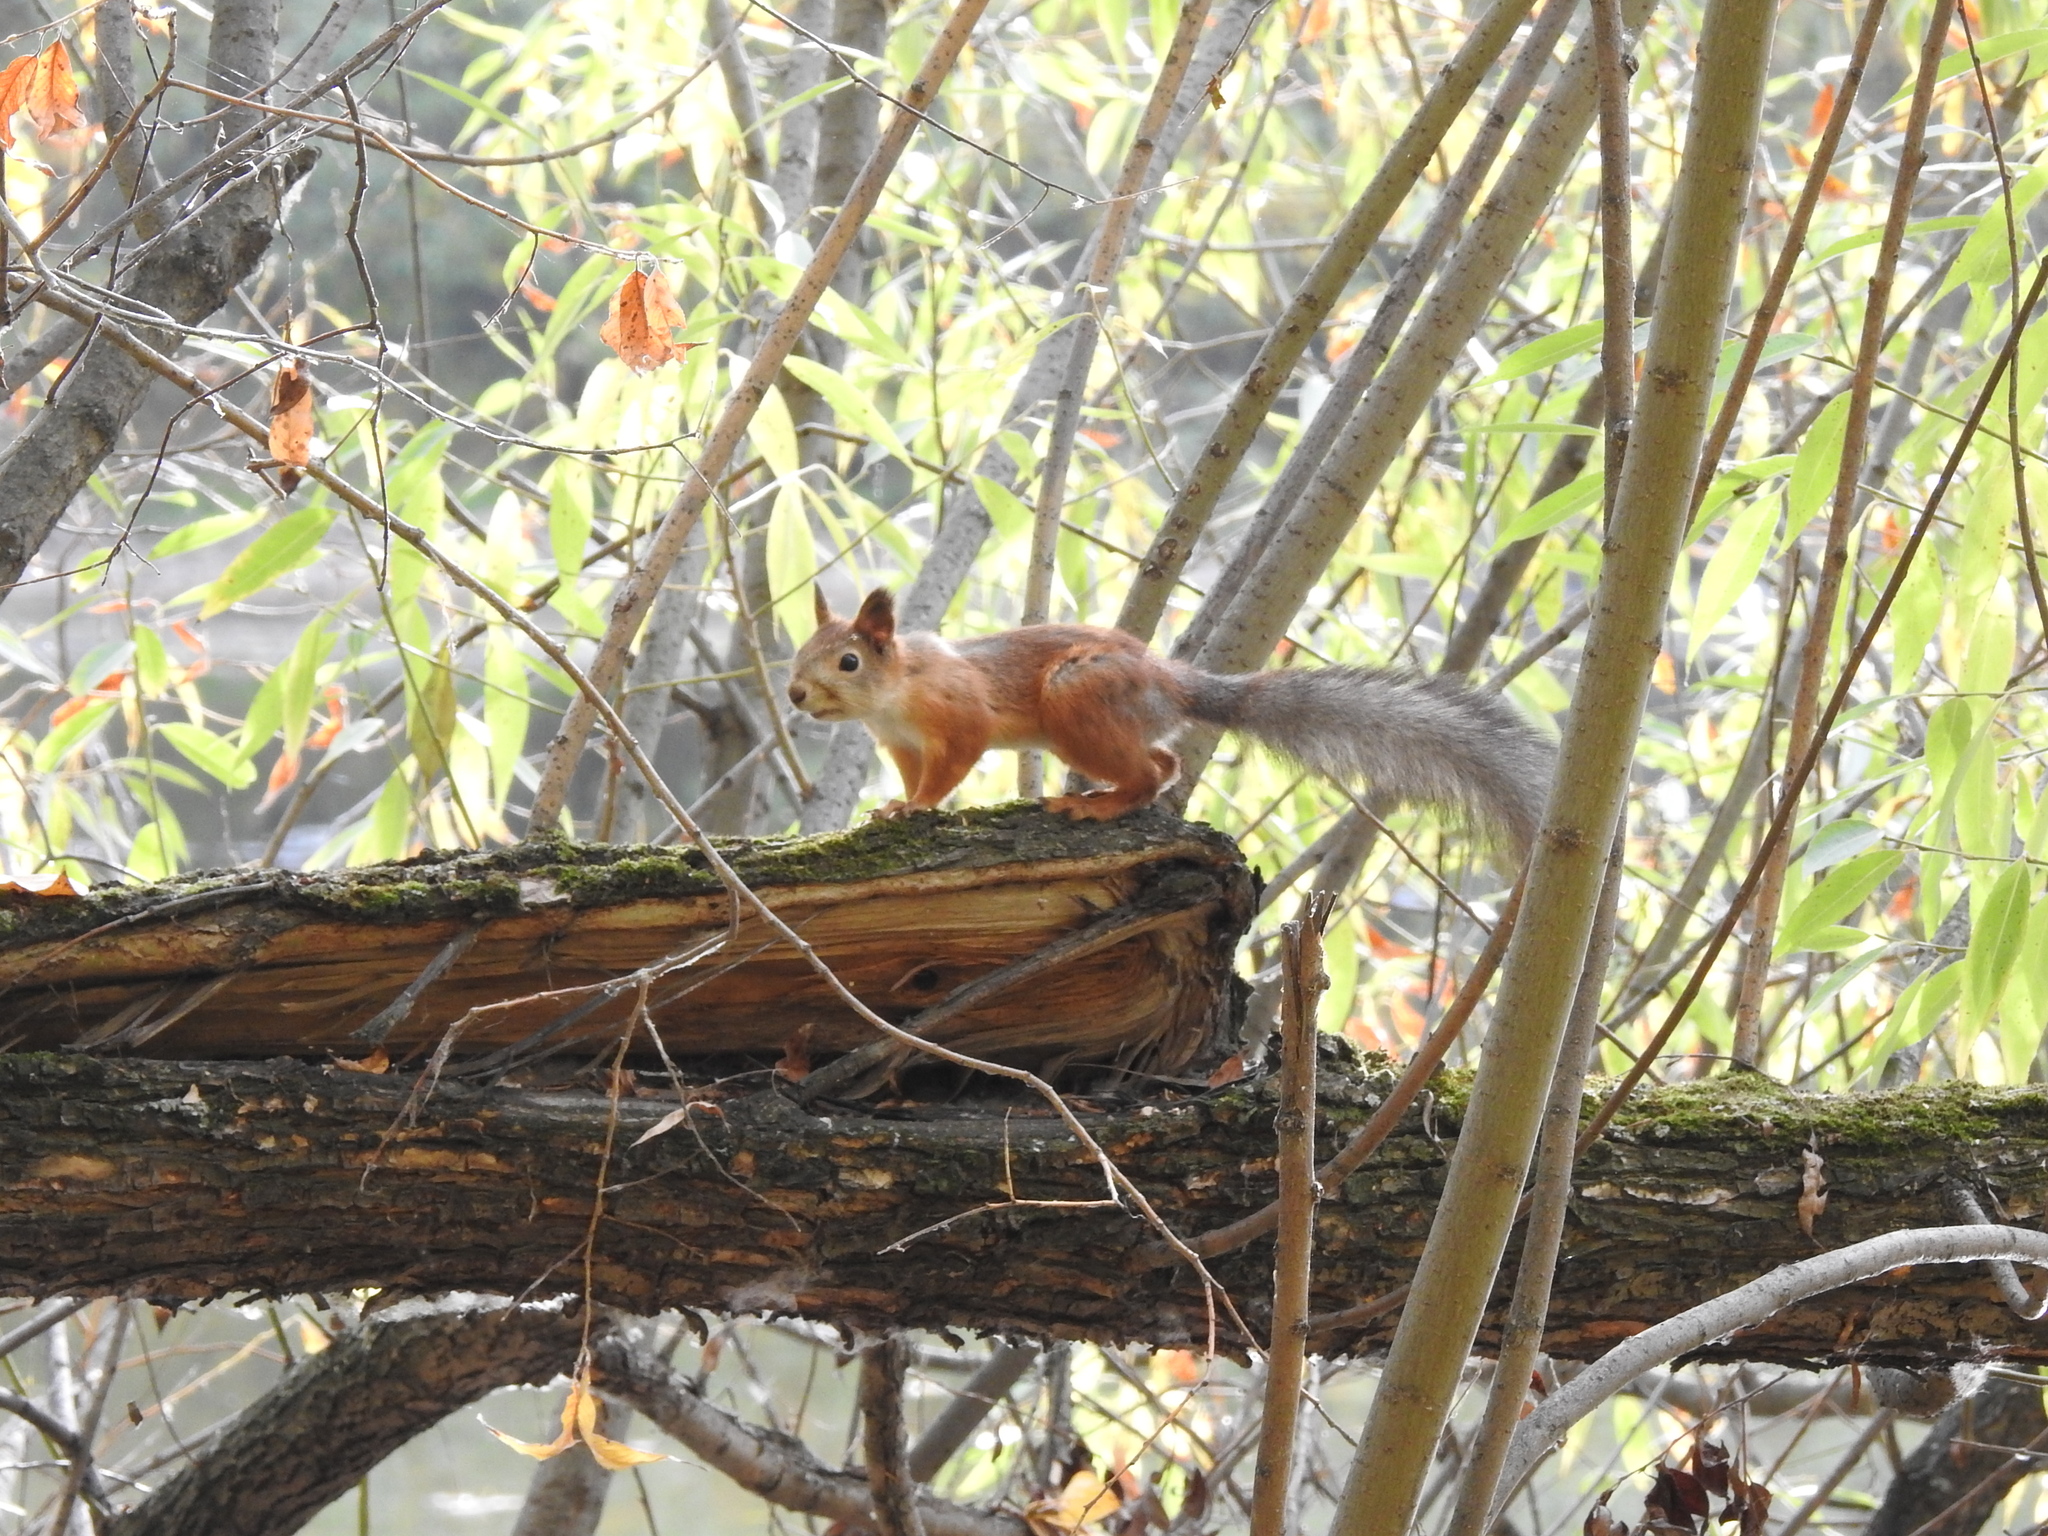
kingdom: Animalia
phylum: Chordata
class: Mammalia
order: Rodentia
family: Sciuridae
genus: Sciurus
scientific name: Sciurus vulgaris
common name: Eurasian red squirrel
